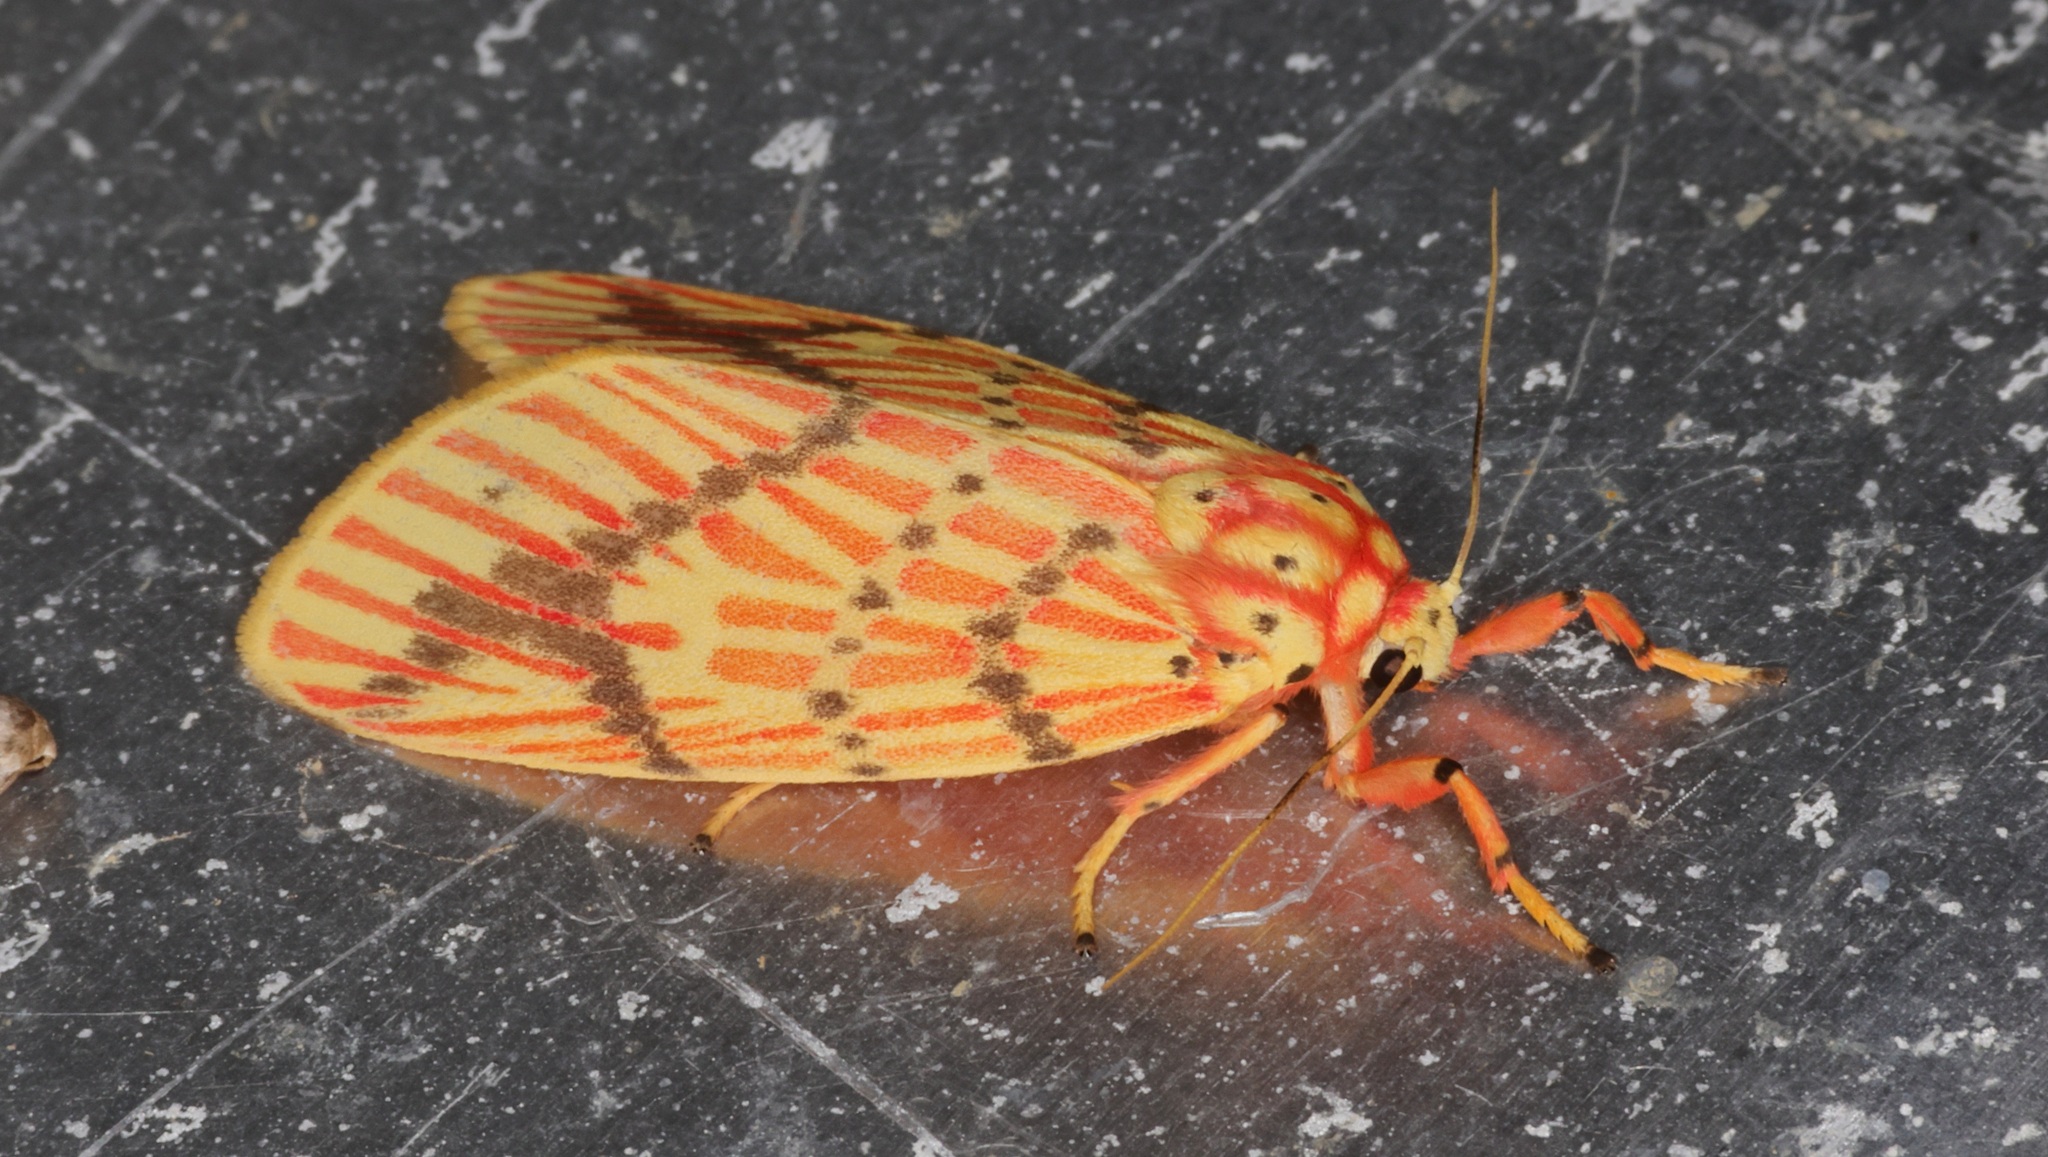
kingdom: Animalia
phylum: Arthropoda
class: Insecta
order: Lepidoptera
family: Erebidae
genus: Barsine
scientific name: Barsine striata
